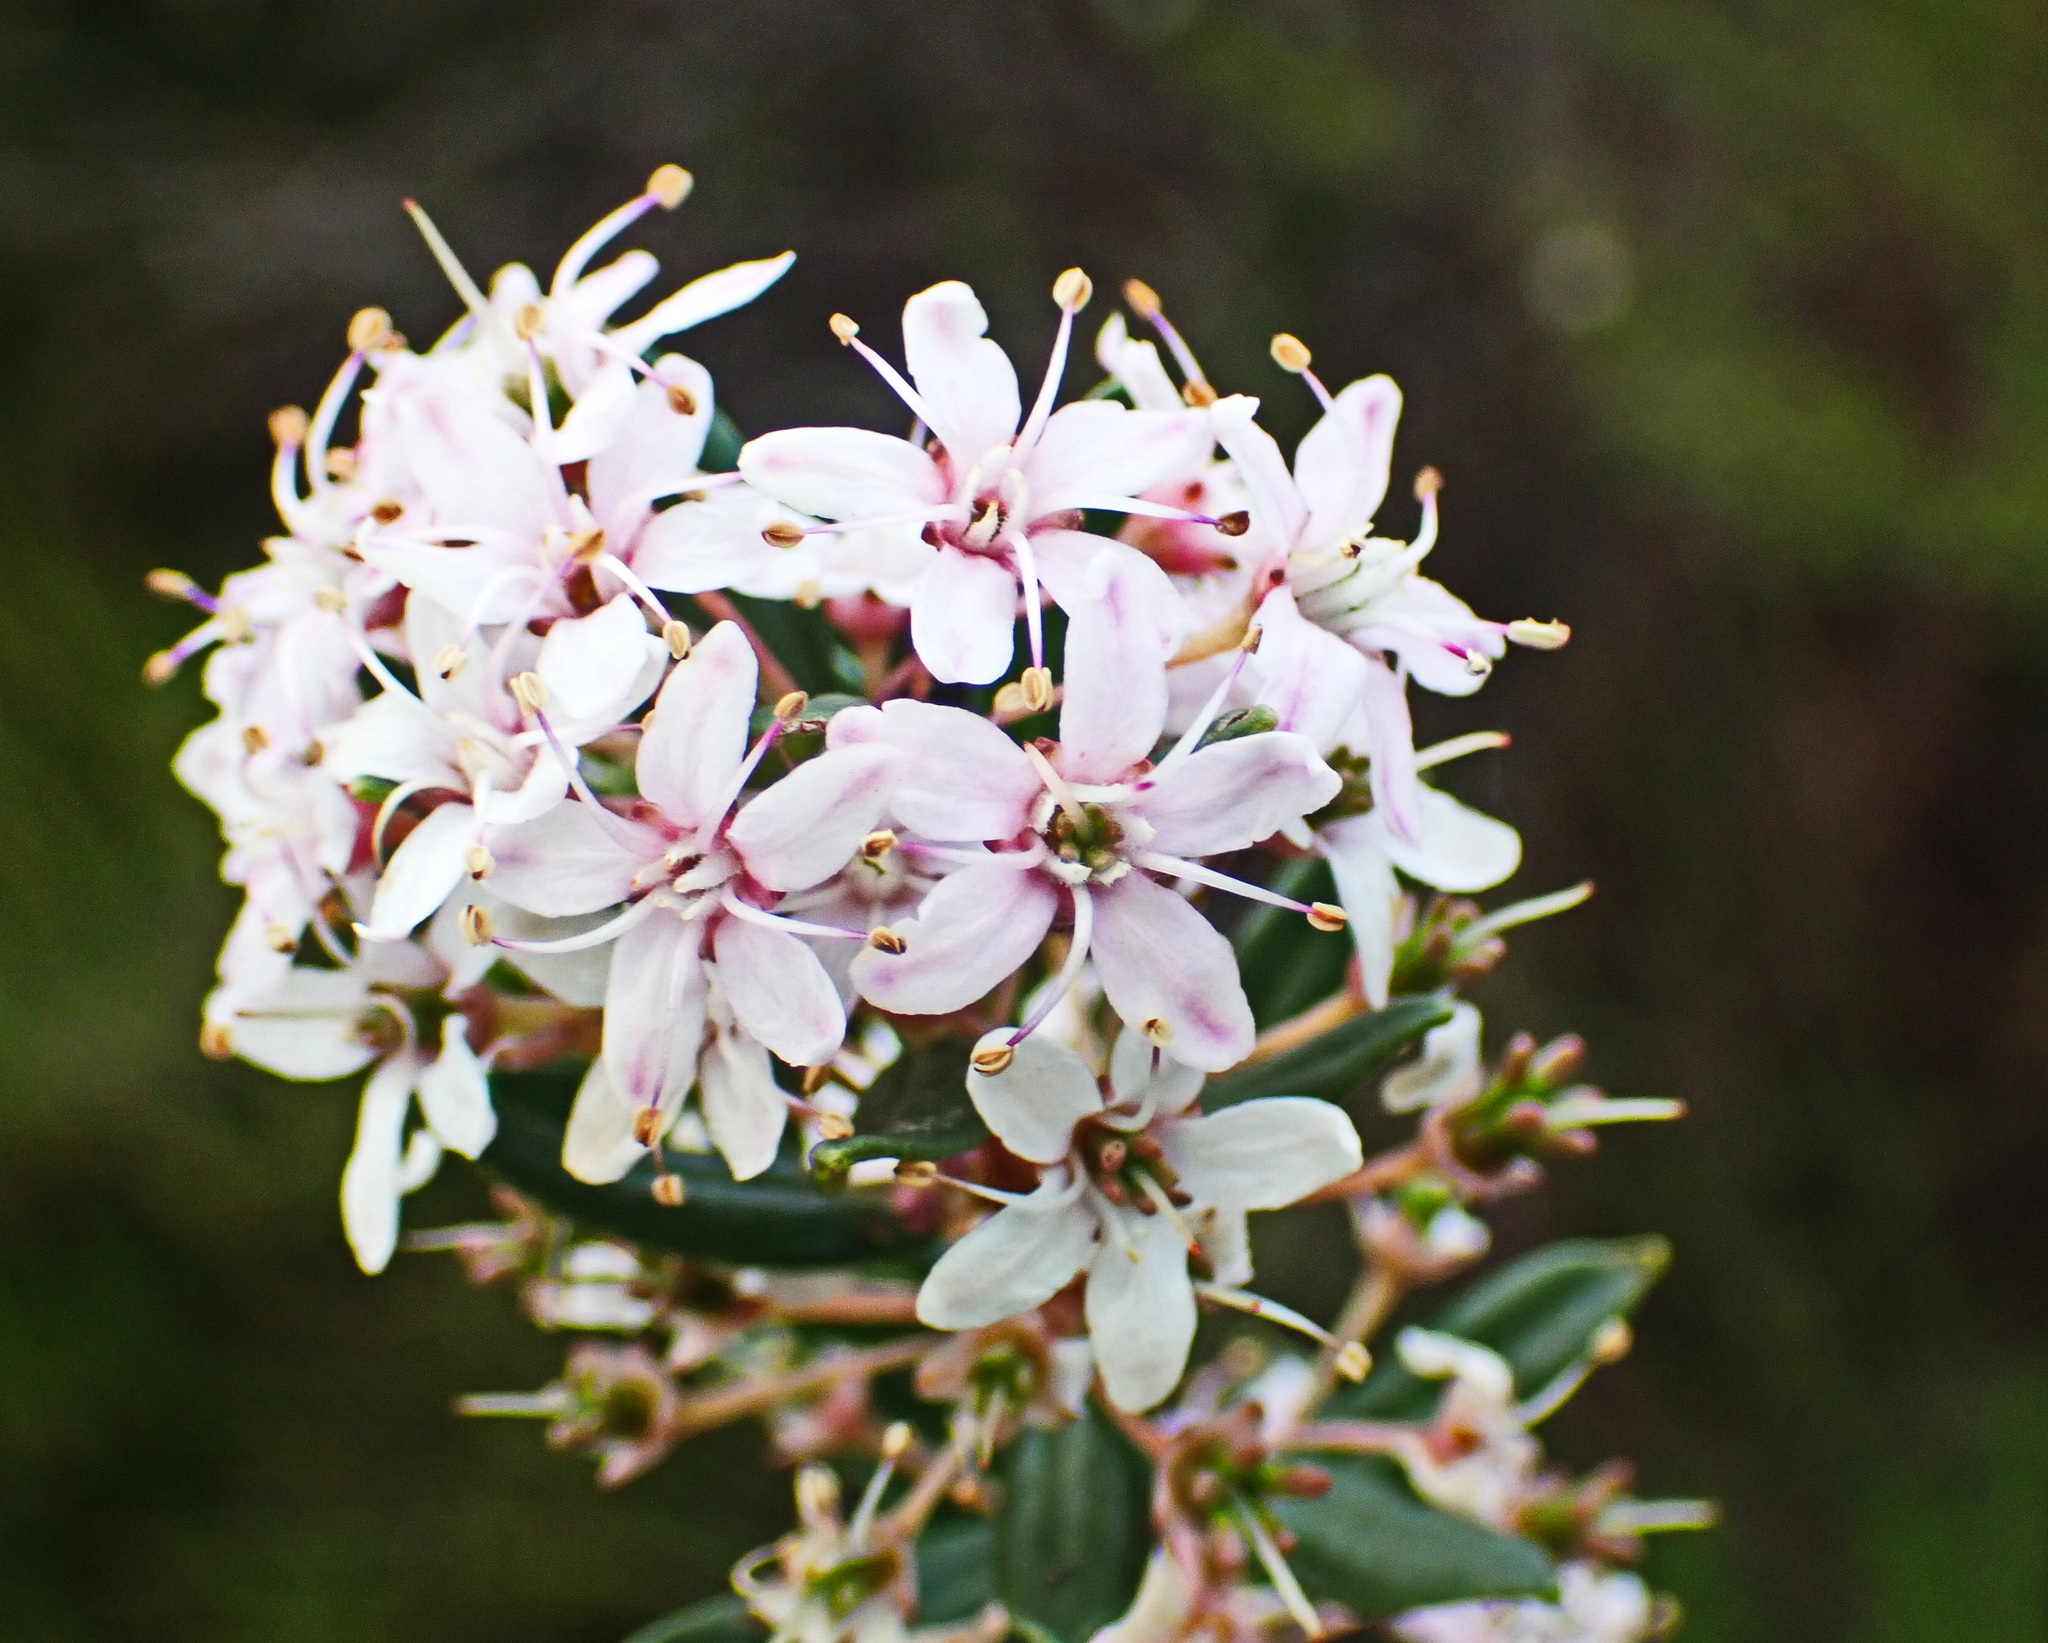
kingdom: Plantae
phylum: Tracheophyta
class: Magnoliopsida
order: Sapindales
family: Rutaceae
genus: Agathosma
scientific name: Agathosma ovata
